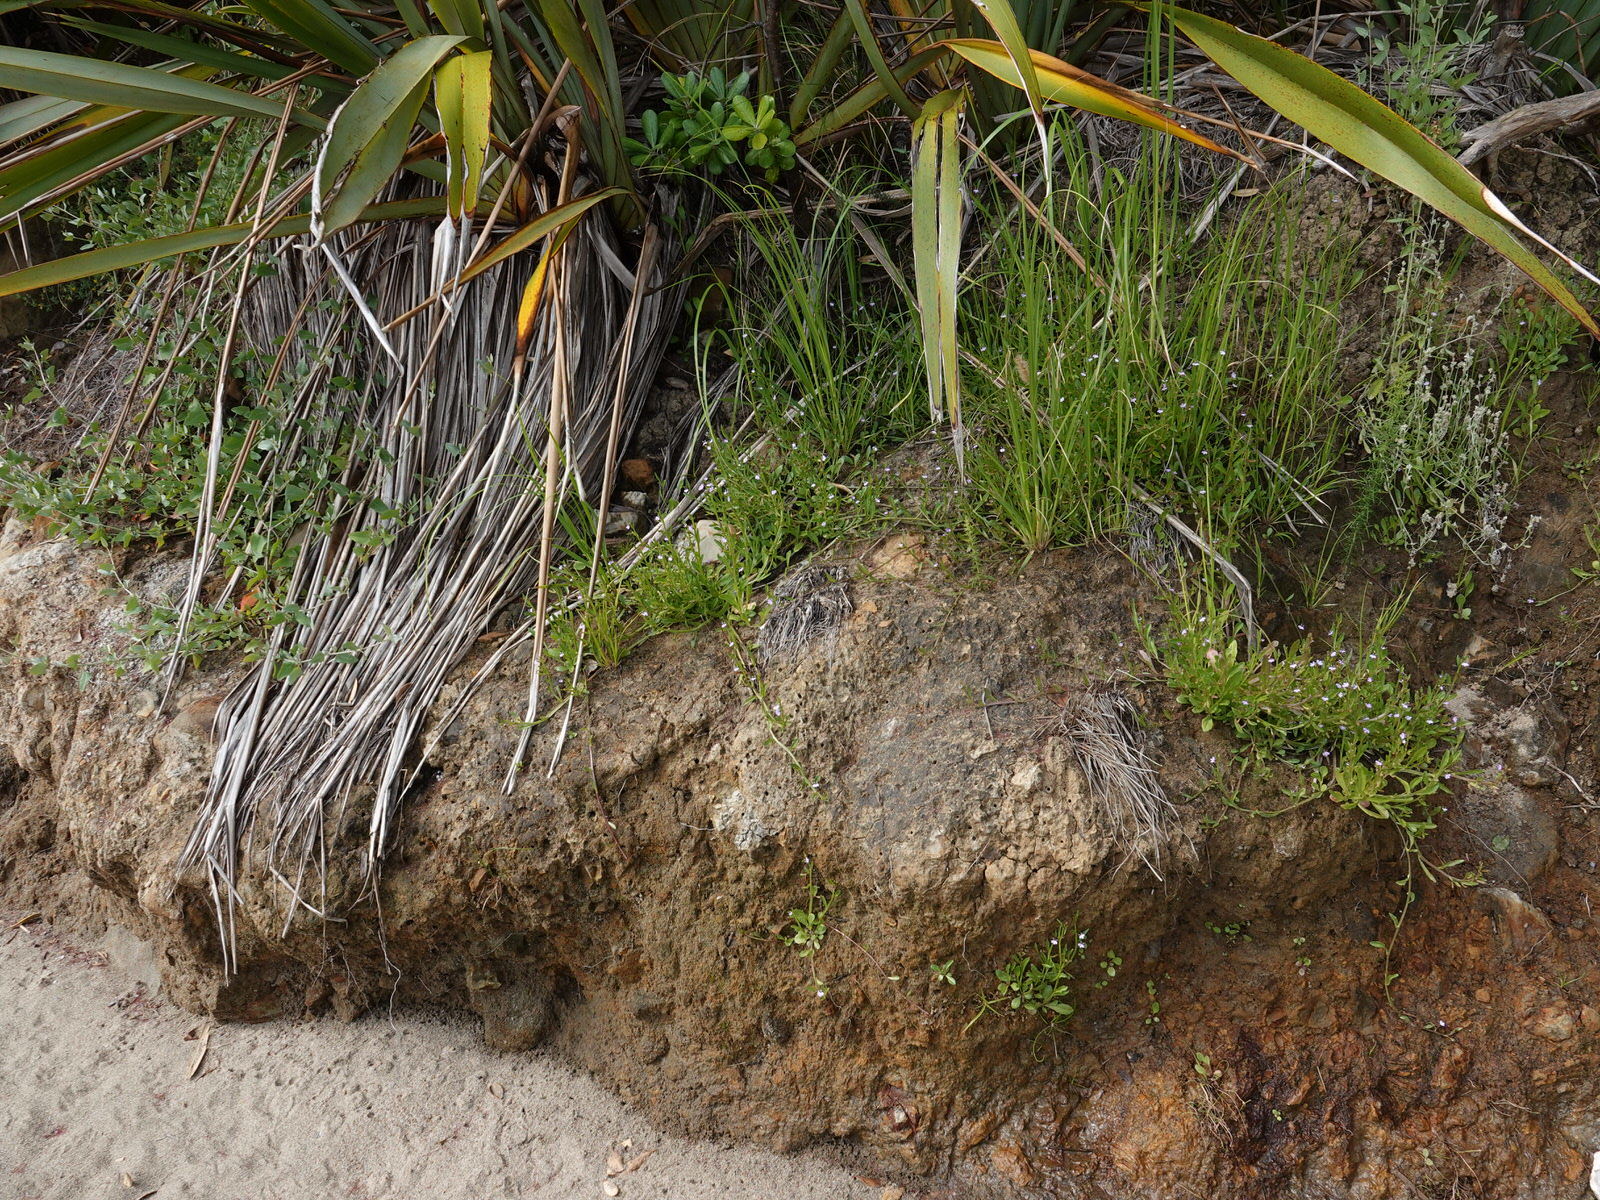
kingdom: Plantae
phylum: Tracheophyta
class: Magnoliopsida
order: Asterales
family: Campanulaceae
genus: Lobelia
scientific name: Lobelia anceps
